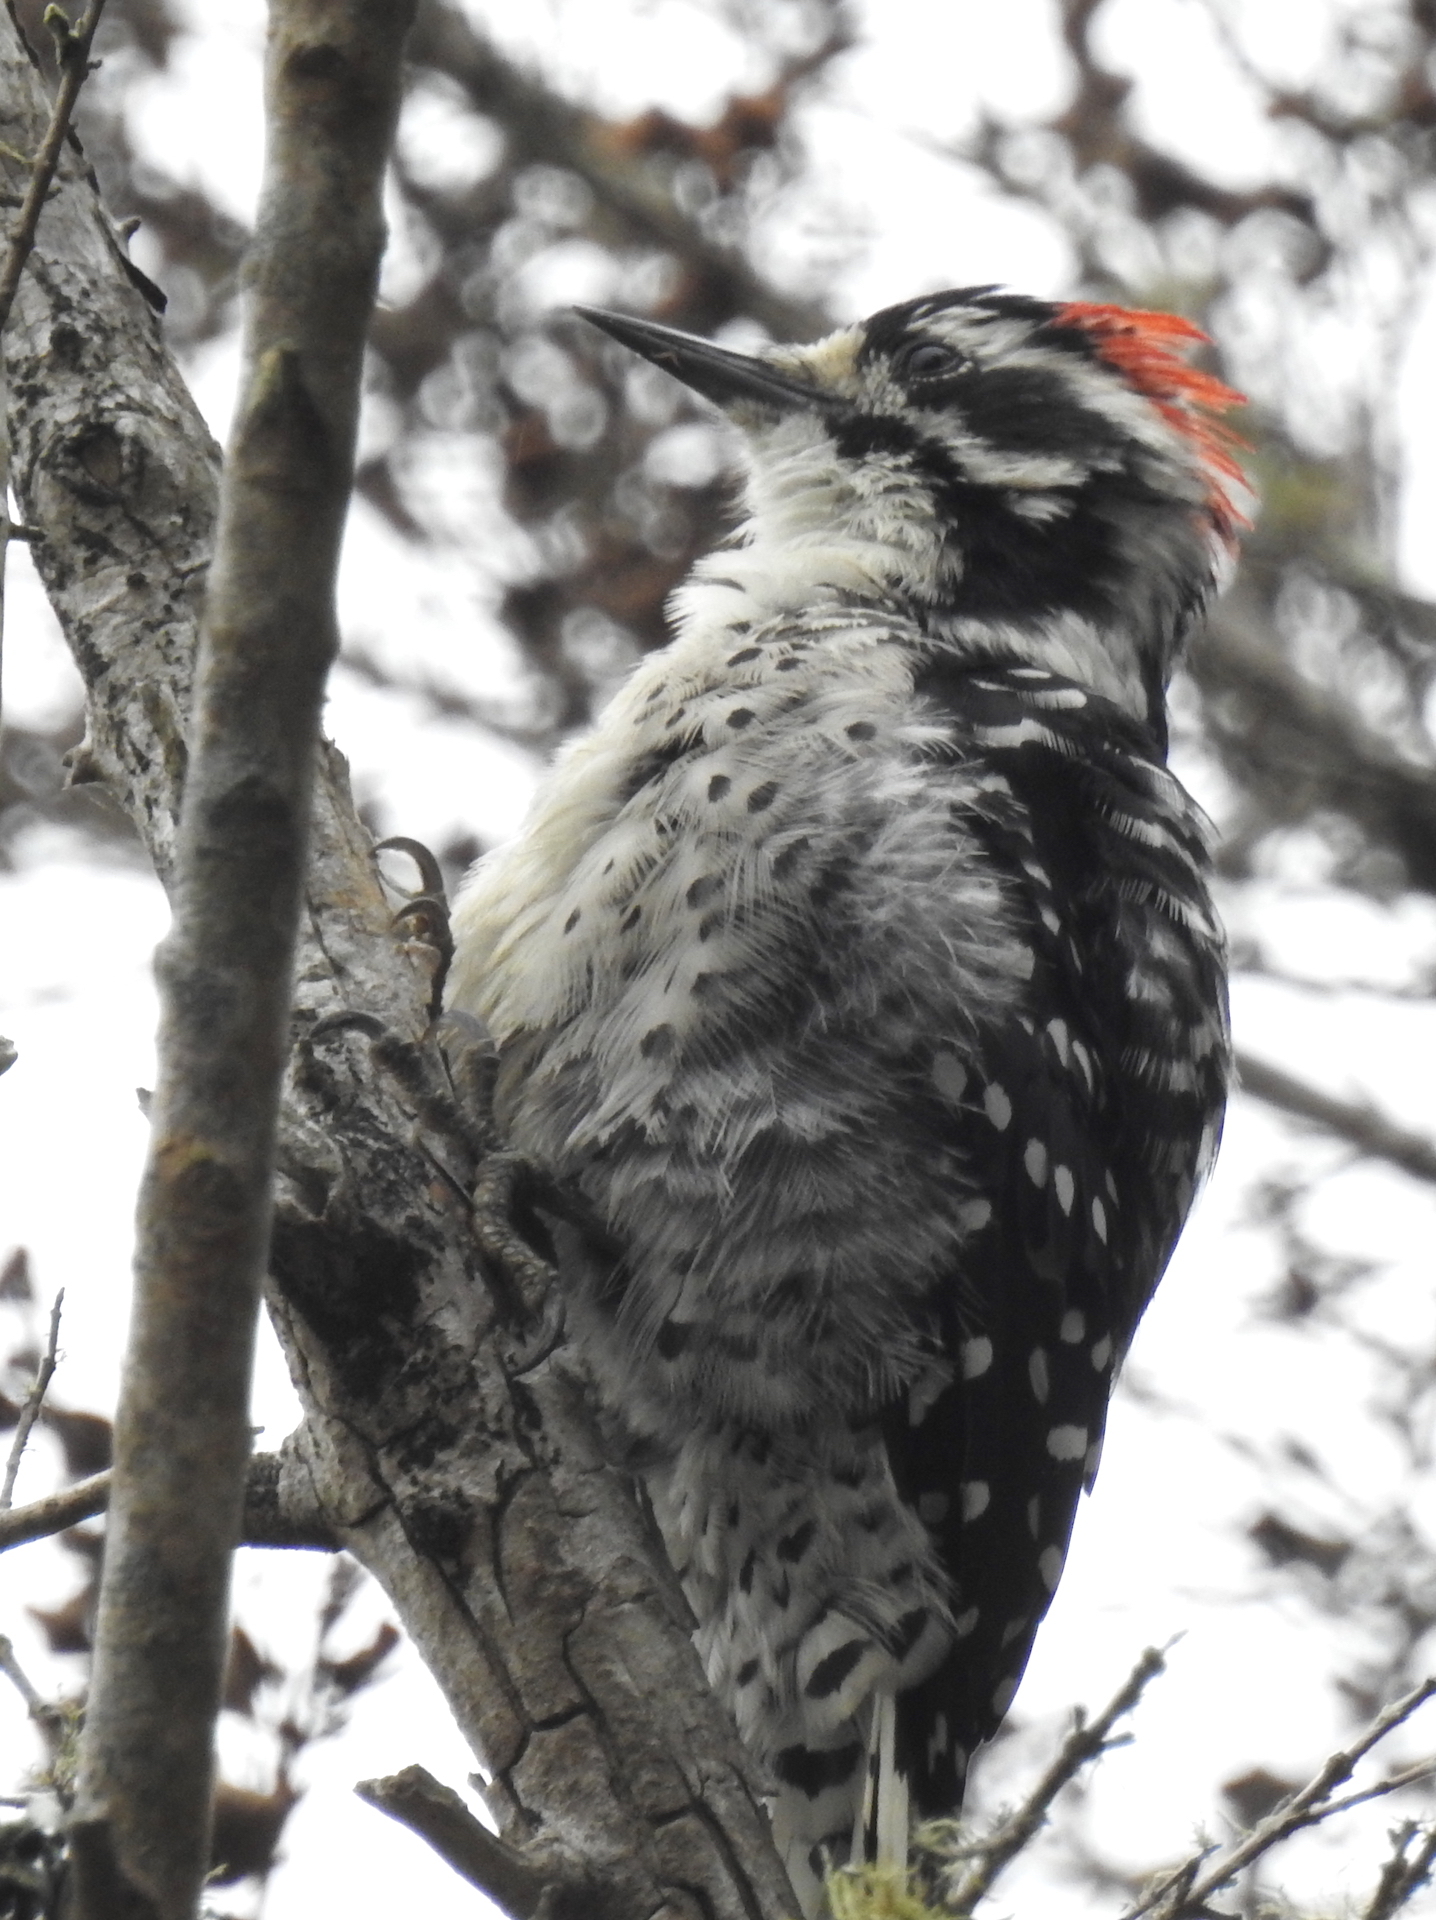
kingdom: Animalia
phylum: Chordata
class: Aves
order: Piciformes
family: Picidae
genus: Dryobates
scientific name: Dryobates nuttallii
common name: Nuttall's woodpecker
